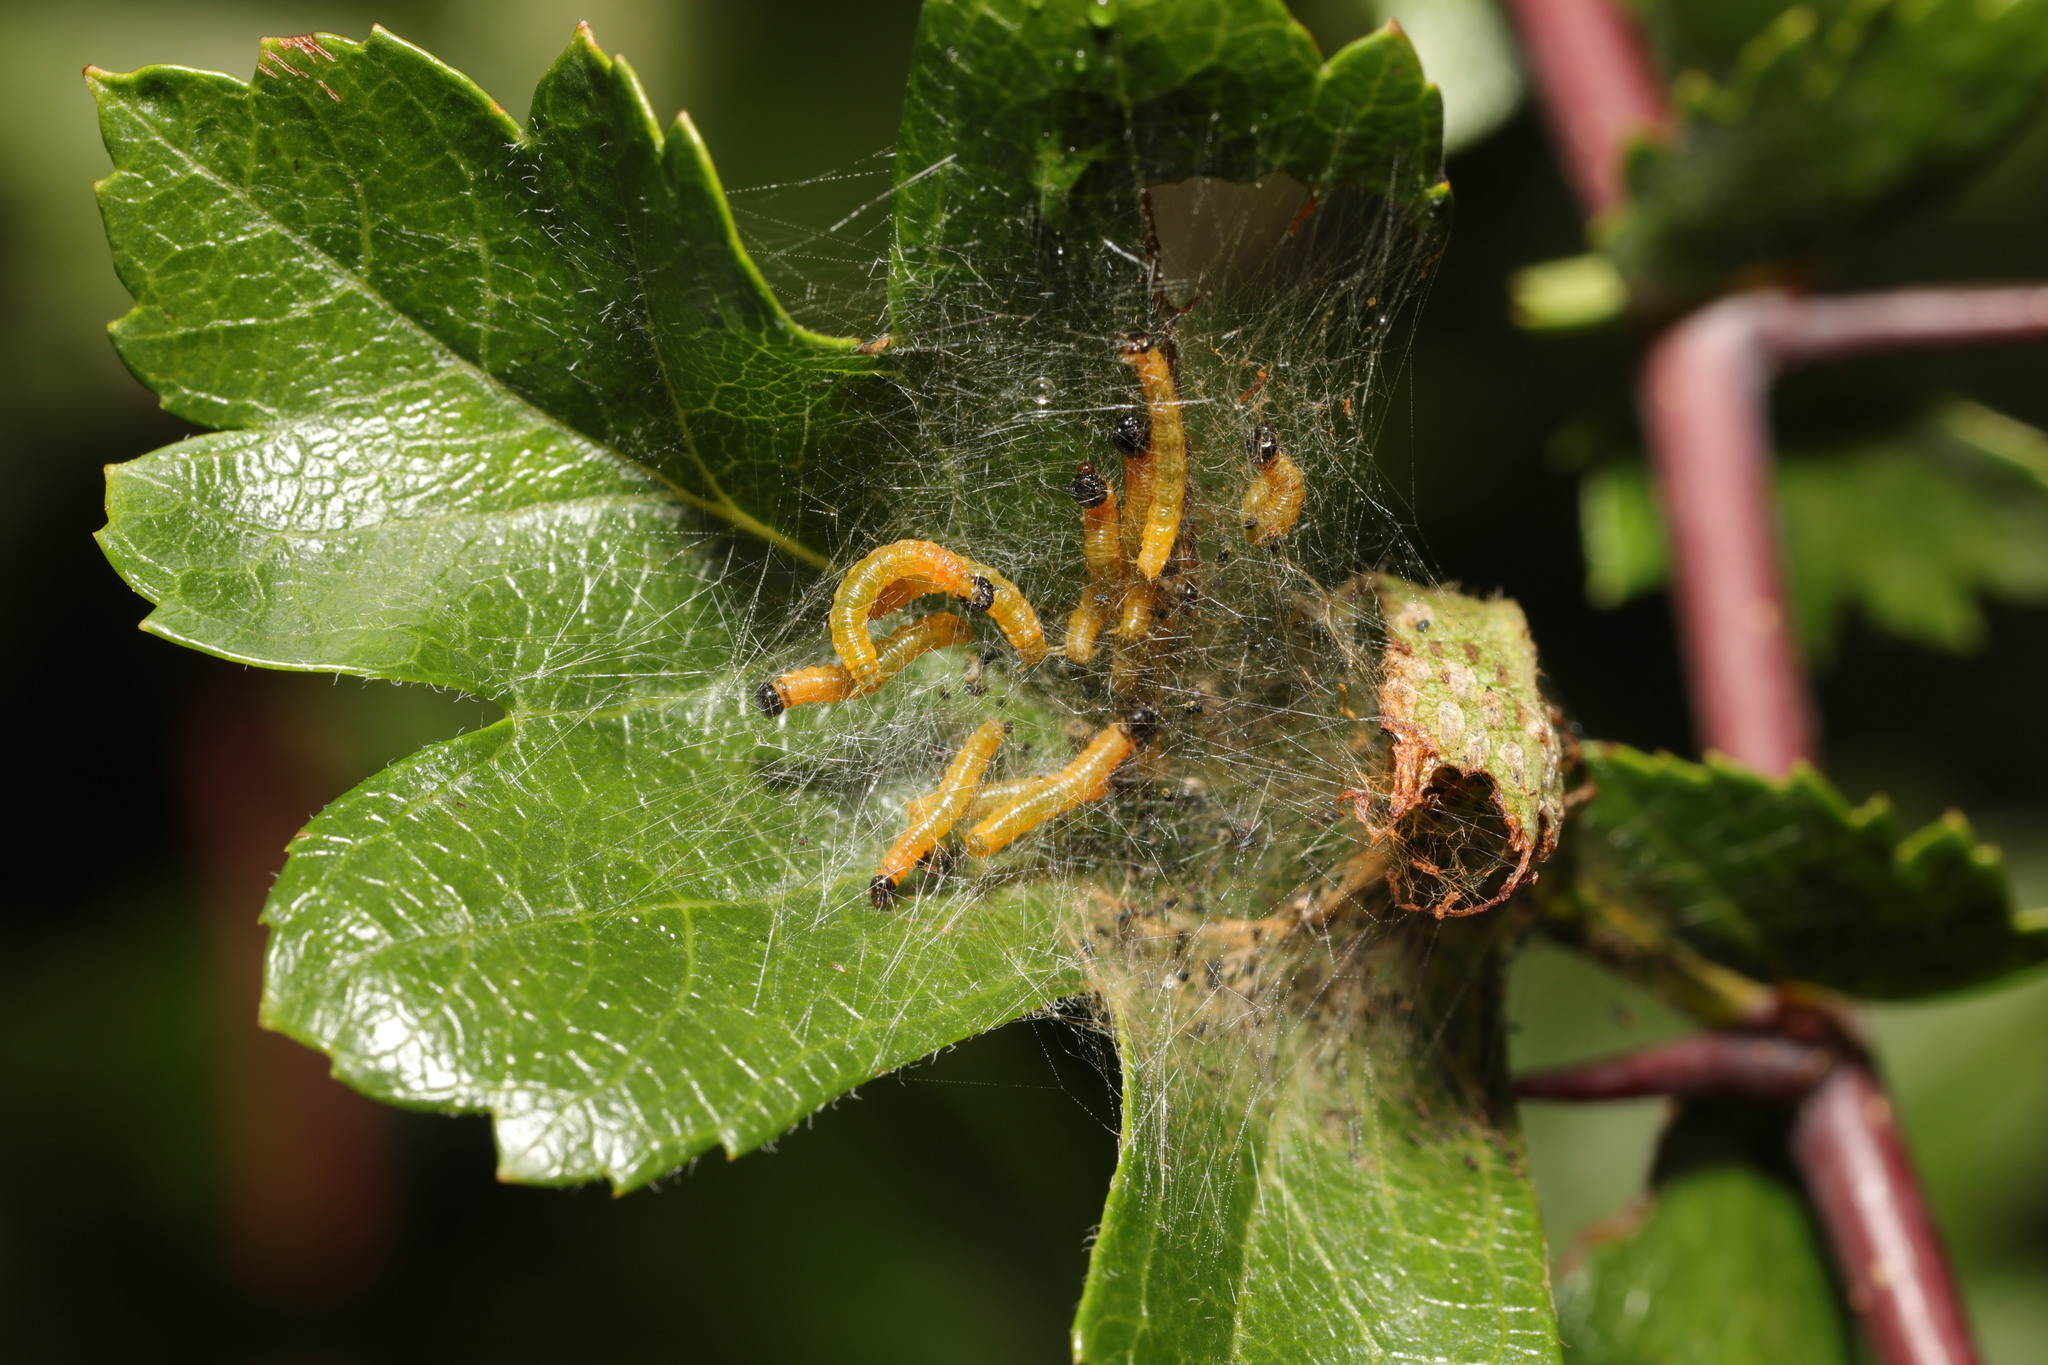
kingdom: Animalia
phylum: Arthropoda
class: Insecta
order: Hymenoptera
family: Pamphiliidae
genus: Neurotoma
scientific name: Neurotoma saltuum
